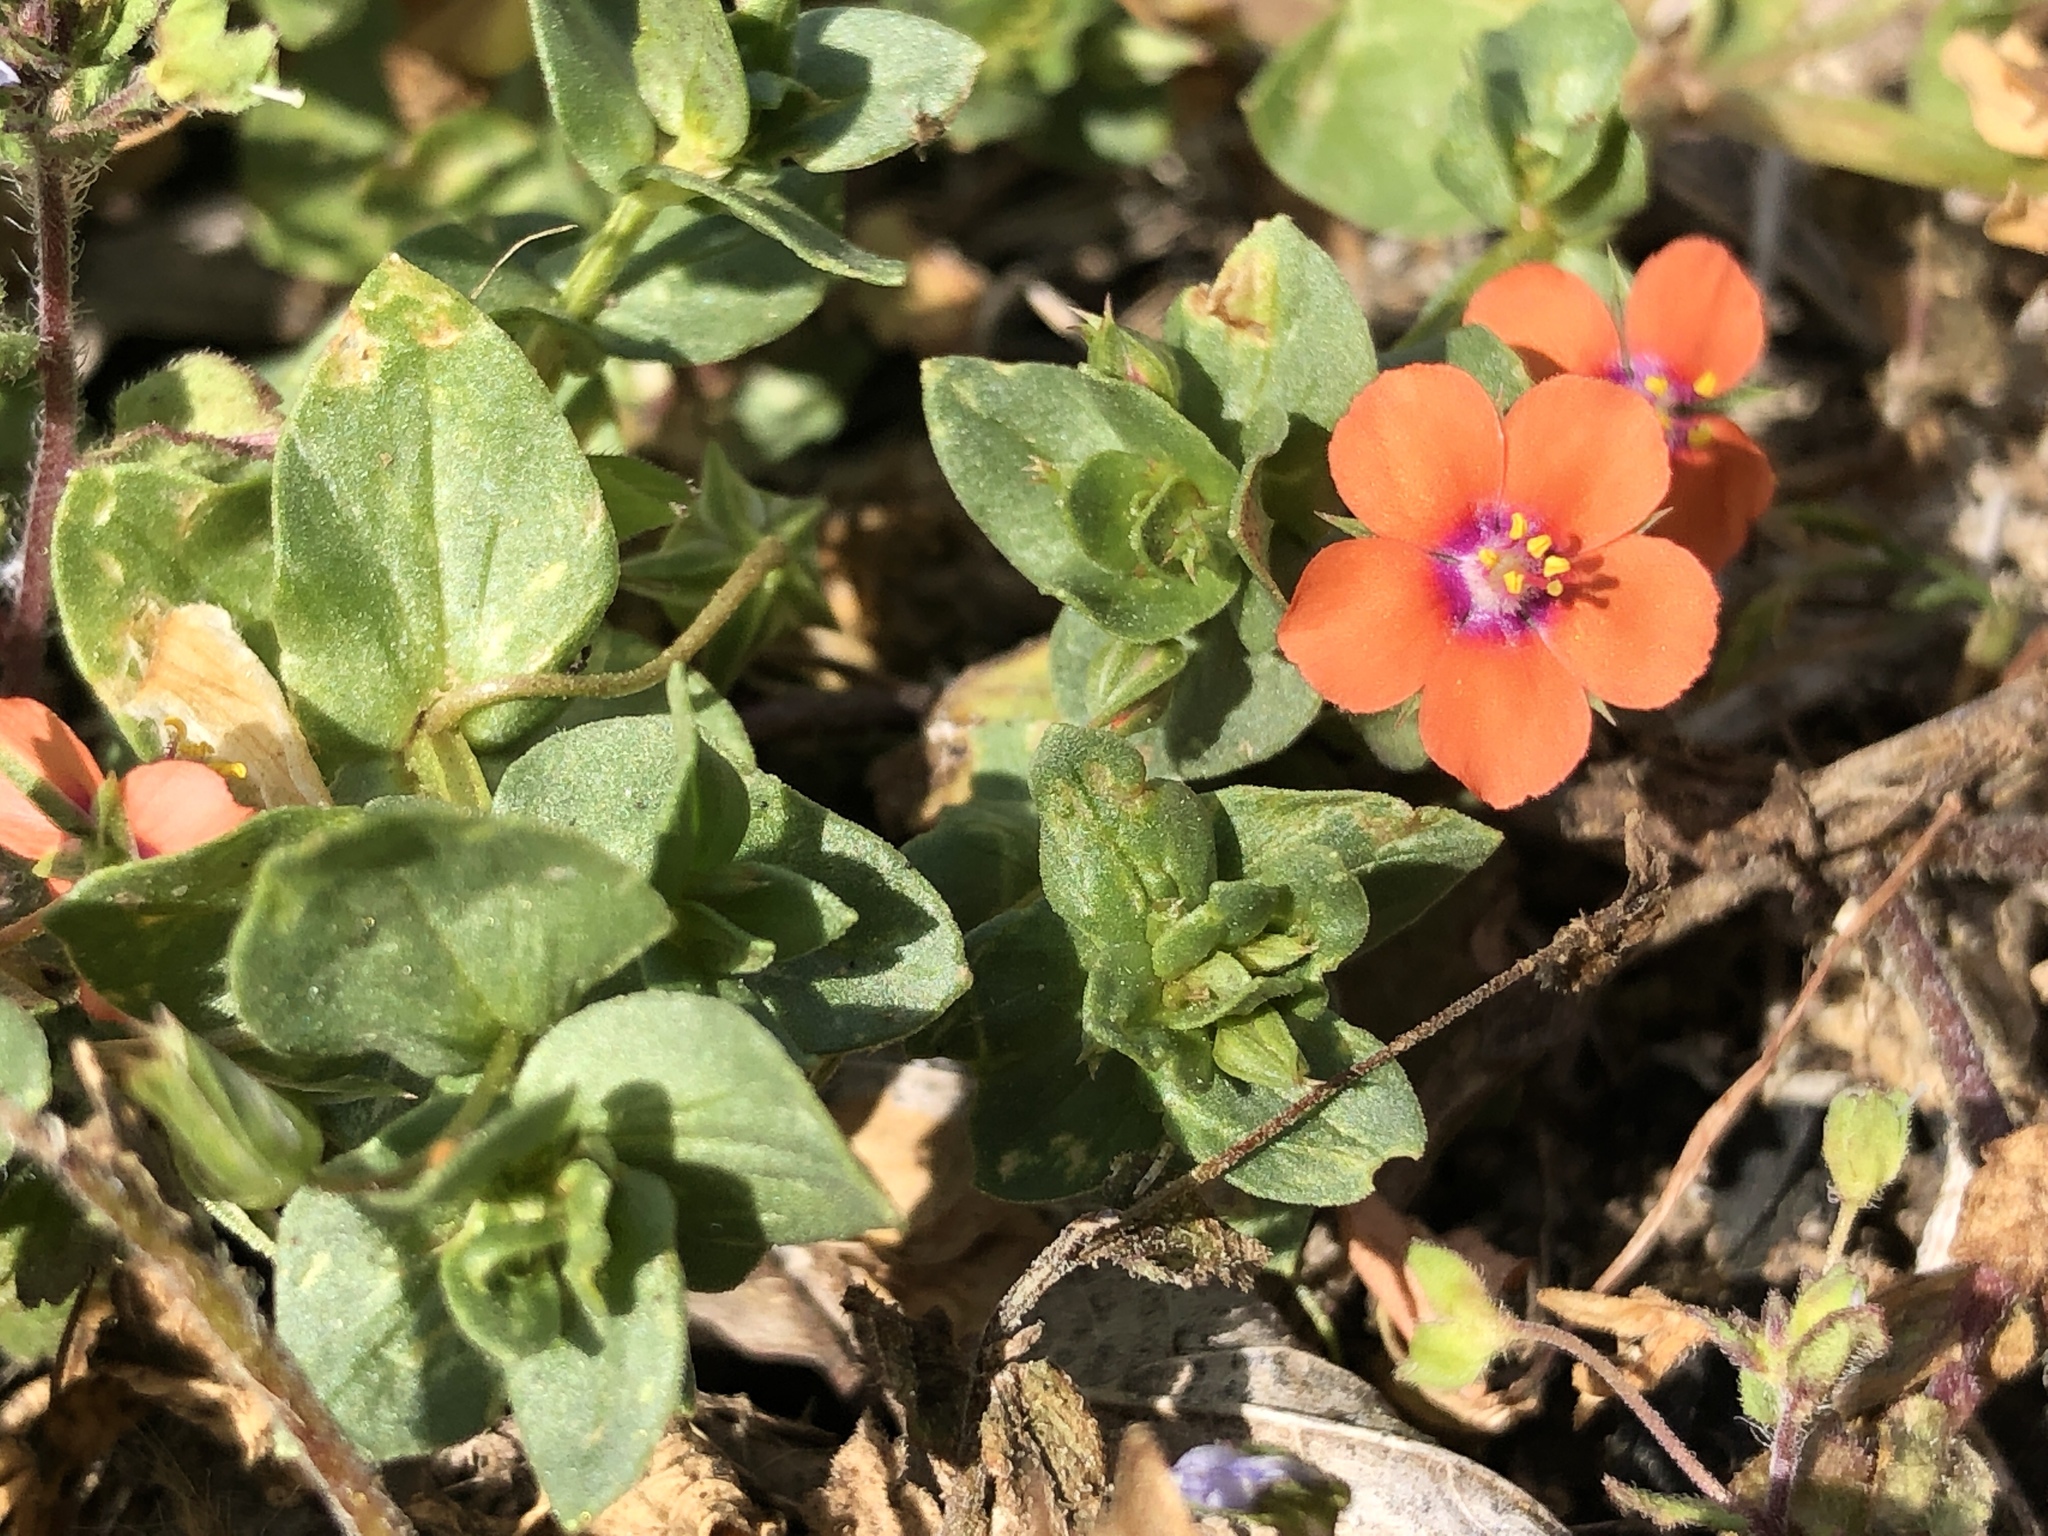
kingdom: Plantae
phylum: Tracheophyta
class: Magnoliopsida
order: Ericales
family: Primulaceae
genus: Lysimachia
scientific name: Lysimachia arvensis
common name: Scarlet pimpernel
